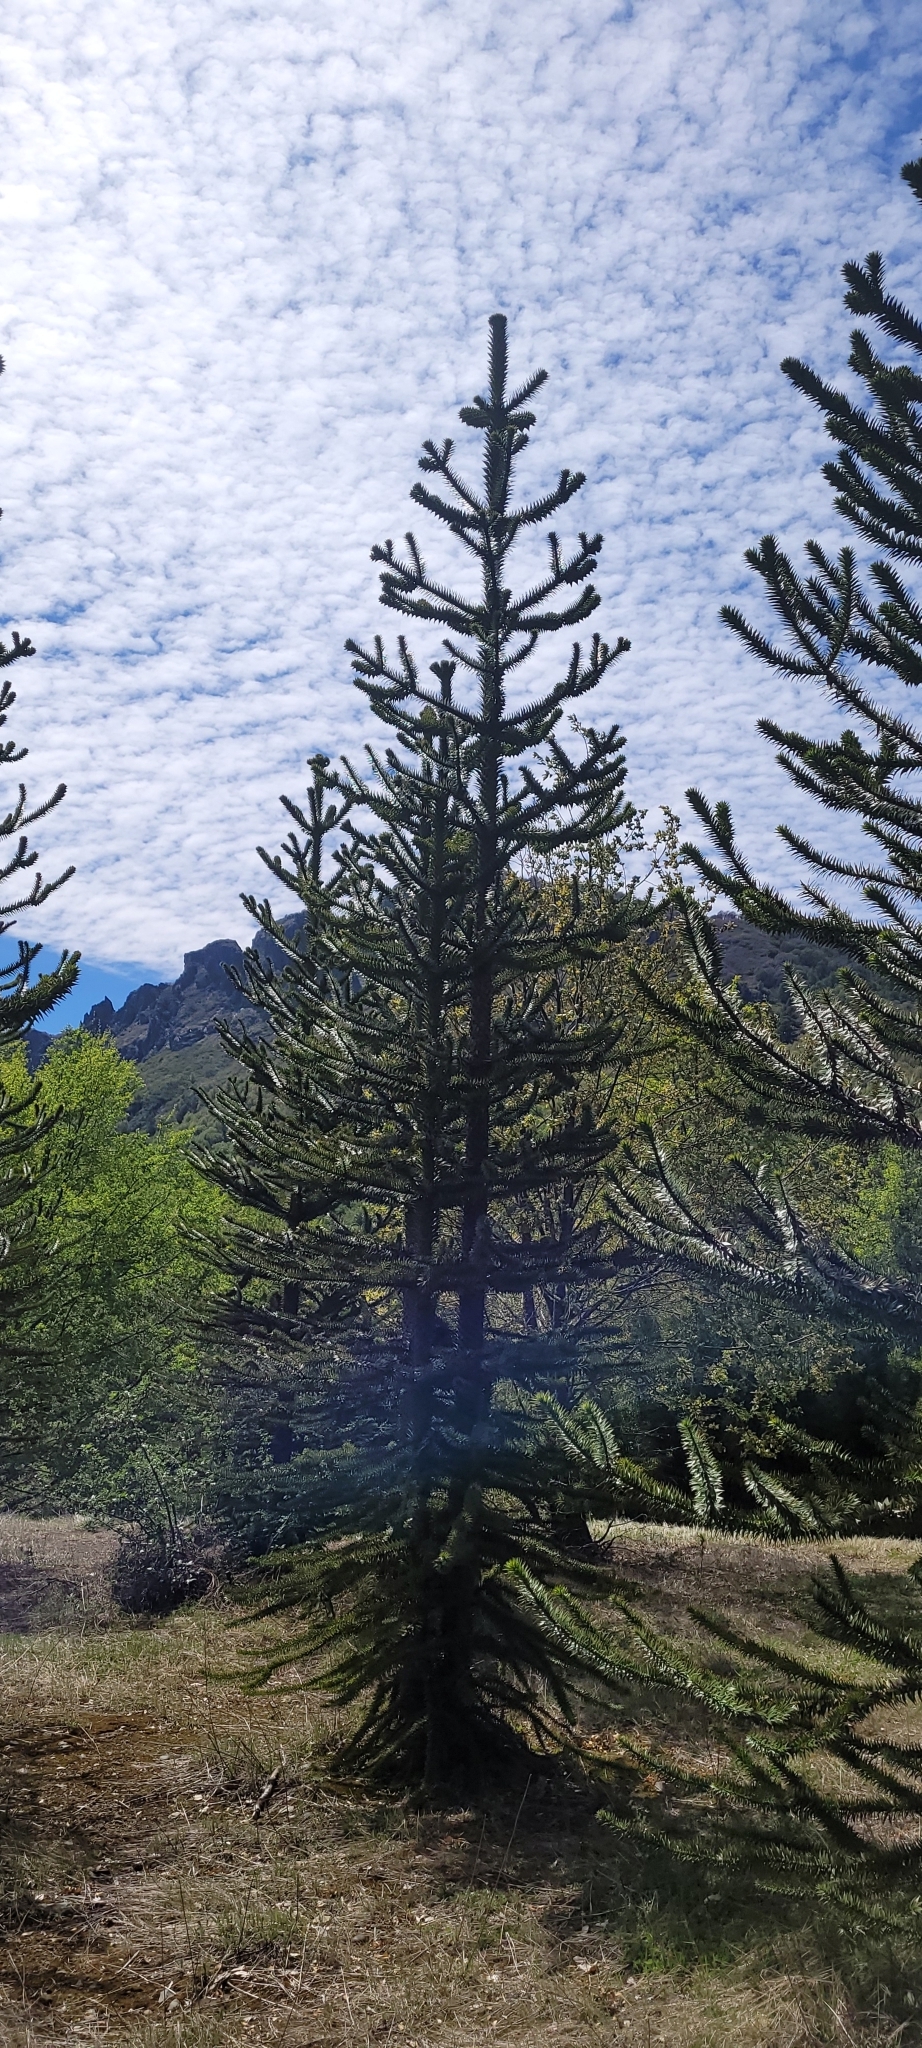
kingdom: Plantae
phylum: Tracheophyta
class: Pinopsida
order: Pinales
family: Araucariaceae
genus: Araucaria
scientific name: Araucaria araucana
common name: Monkey-puzzle
